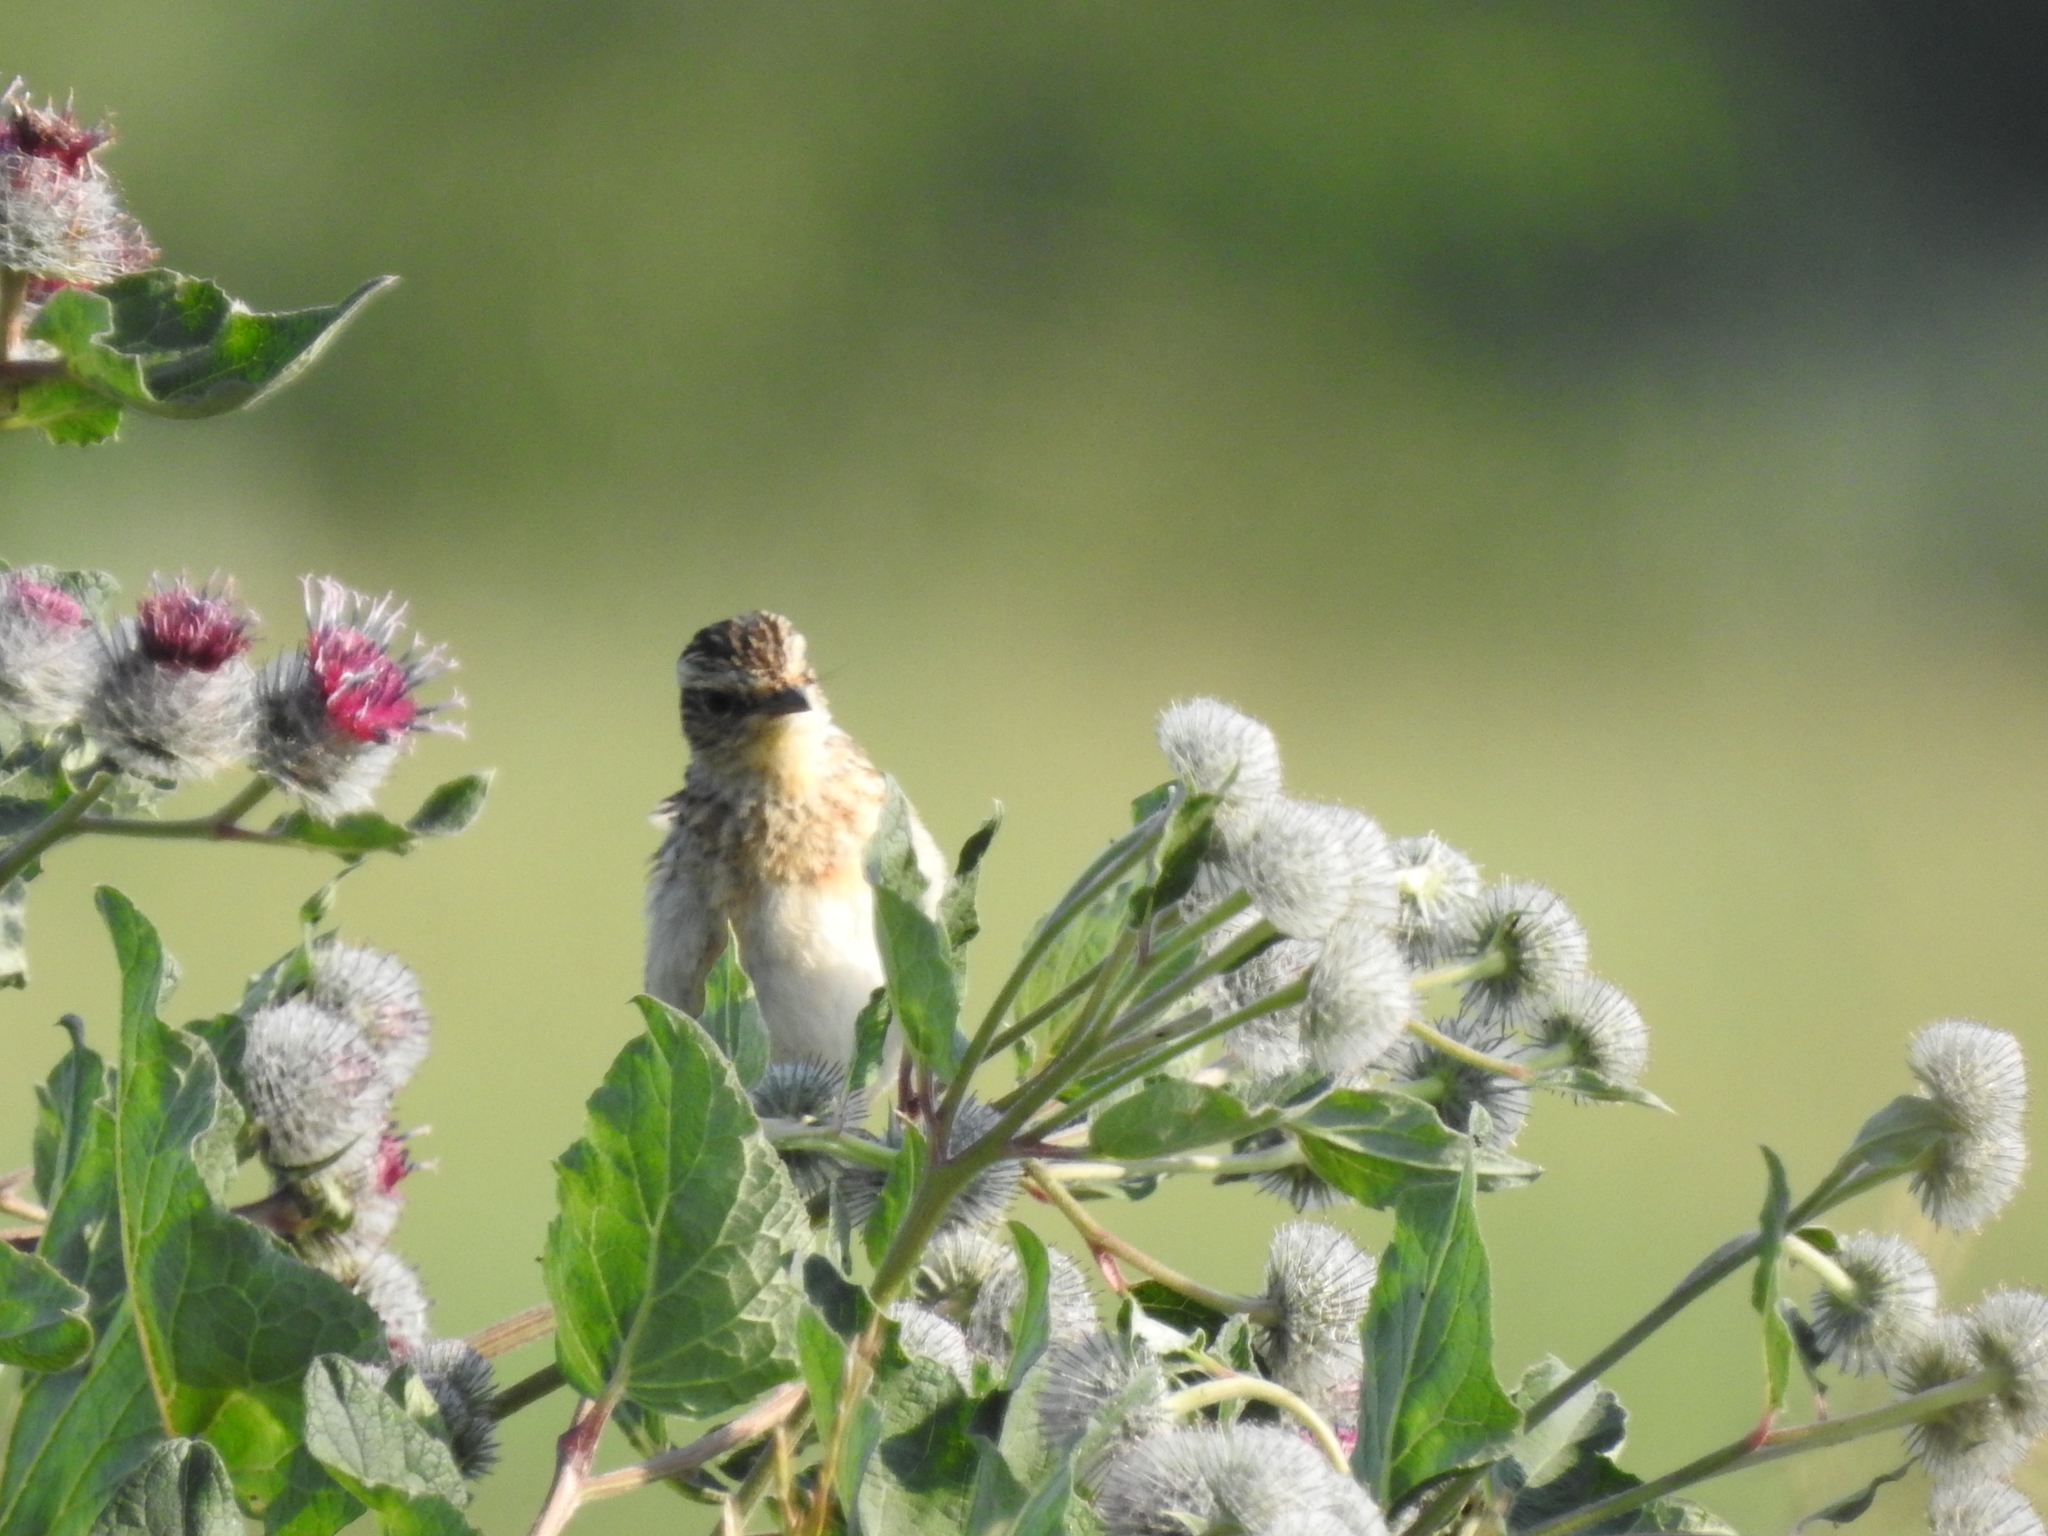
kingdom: Animalia
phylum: Chordata
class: Aves
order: Passeriformes
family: Muscicapidae
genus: Saxicola
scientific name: Saxicola rubetra
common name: Whinchat
